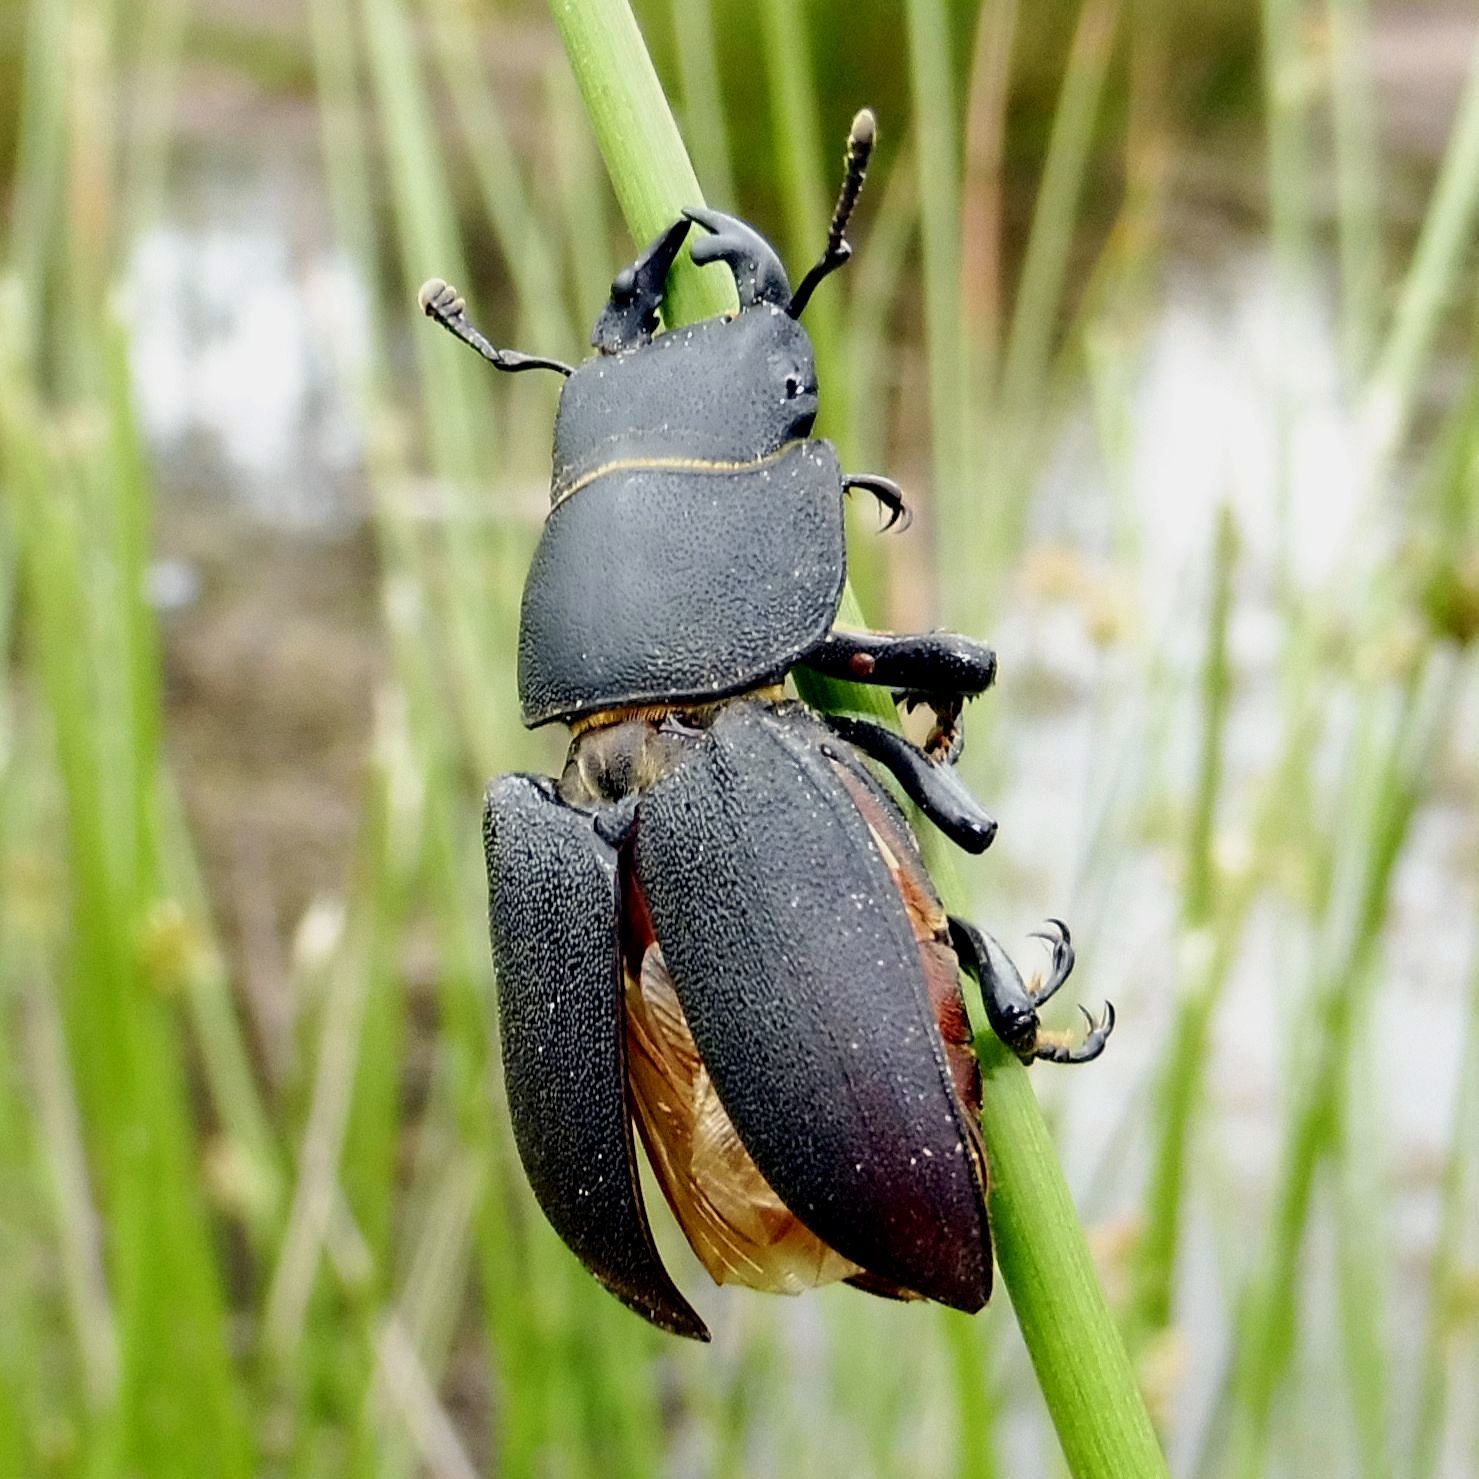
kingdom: Animalia
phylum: Arthropoda
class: Insecta
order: Coleoptera
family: Lucanidae
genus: Dorcus
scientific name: Dorcus parallelipipedus
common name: Lesser stag beetle
